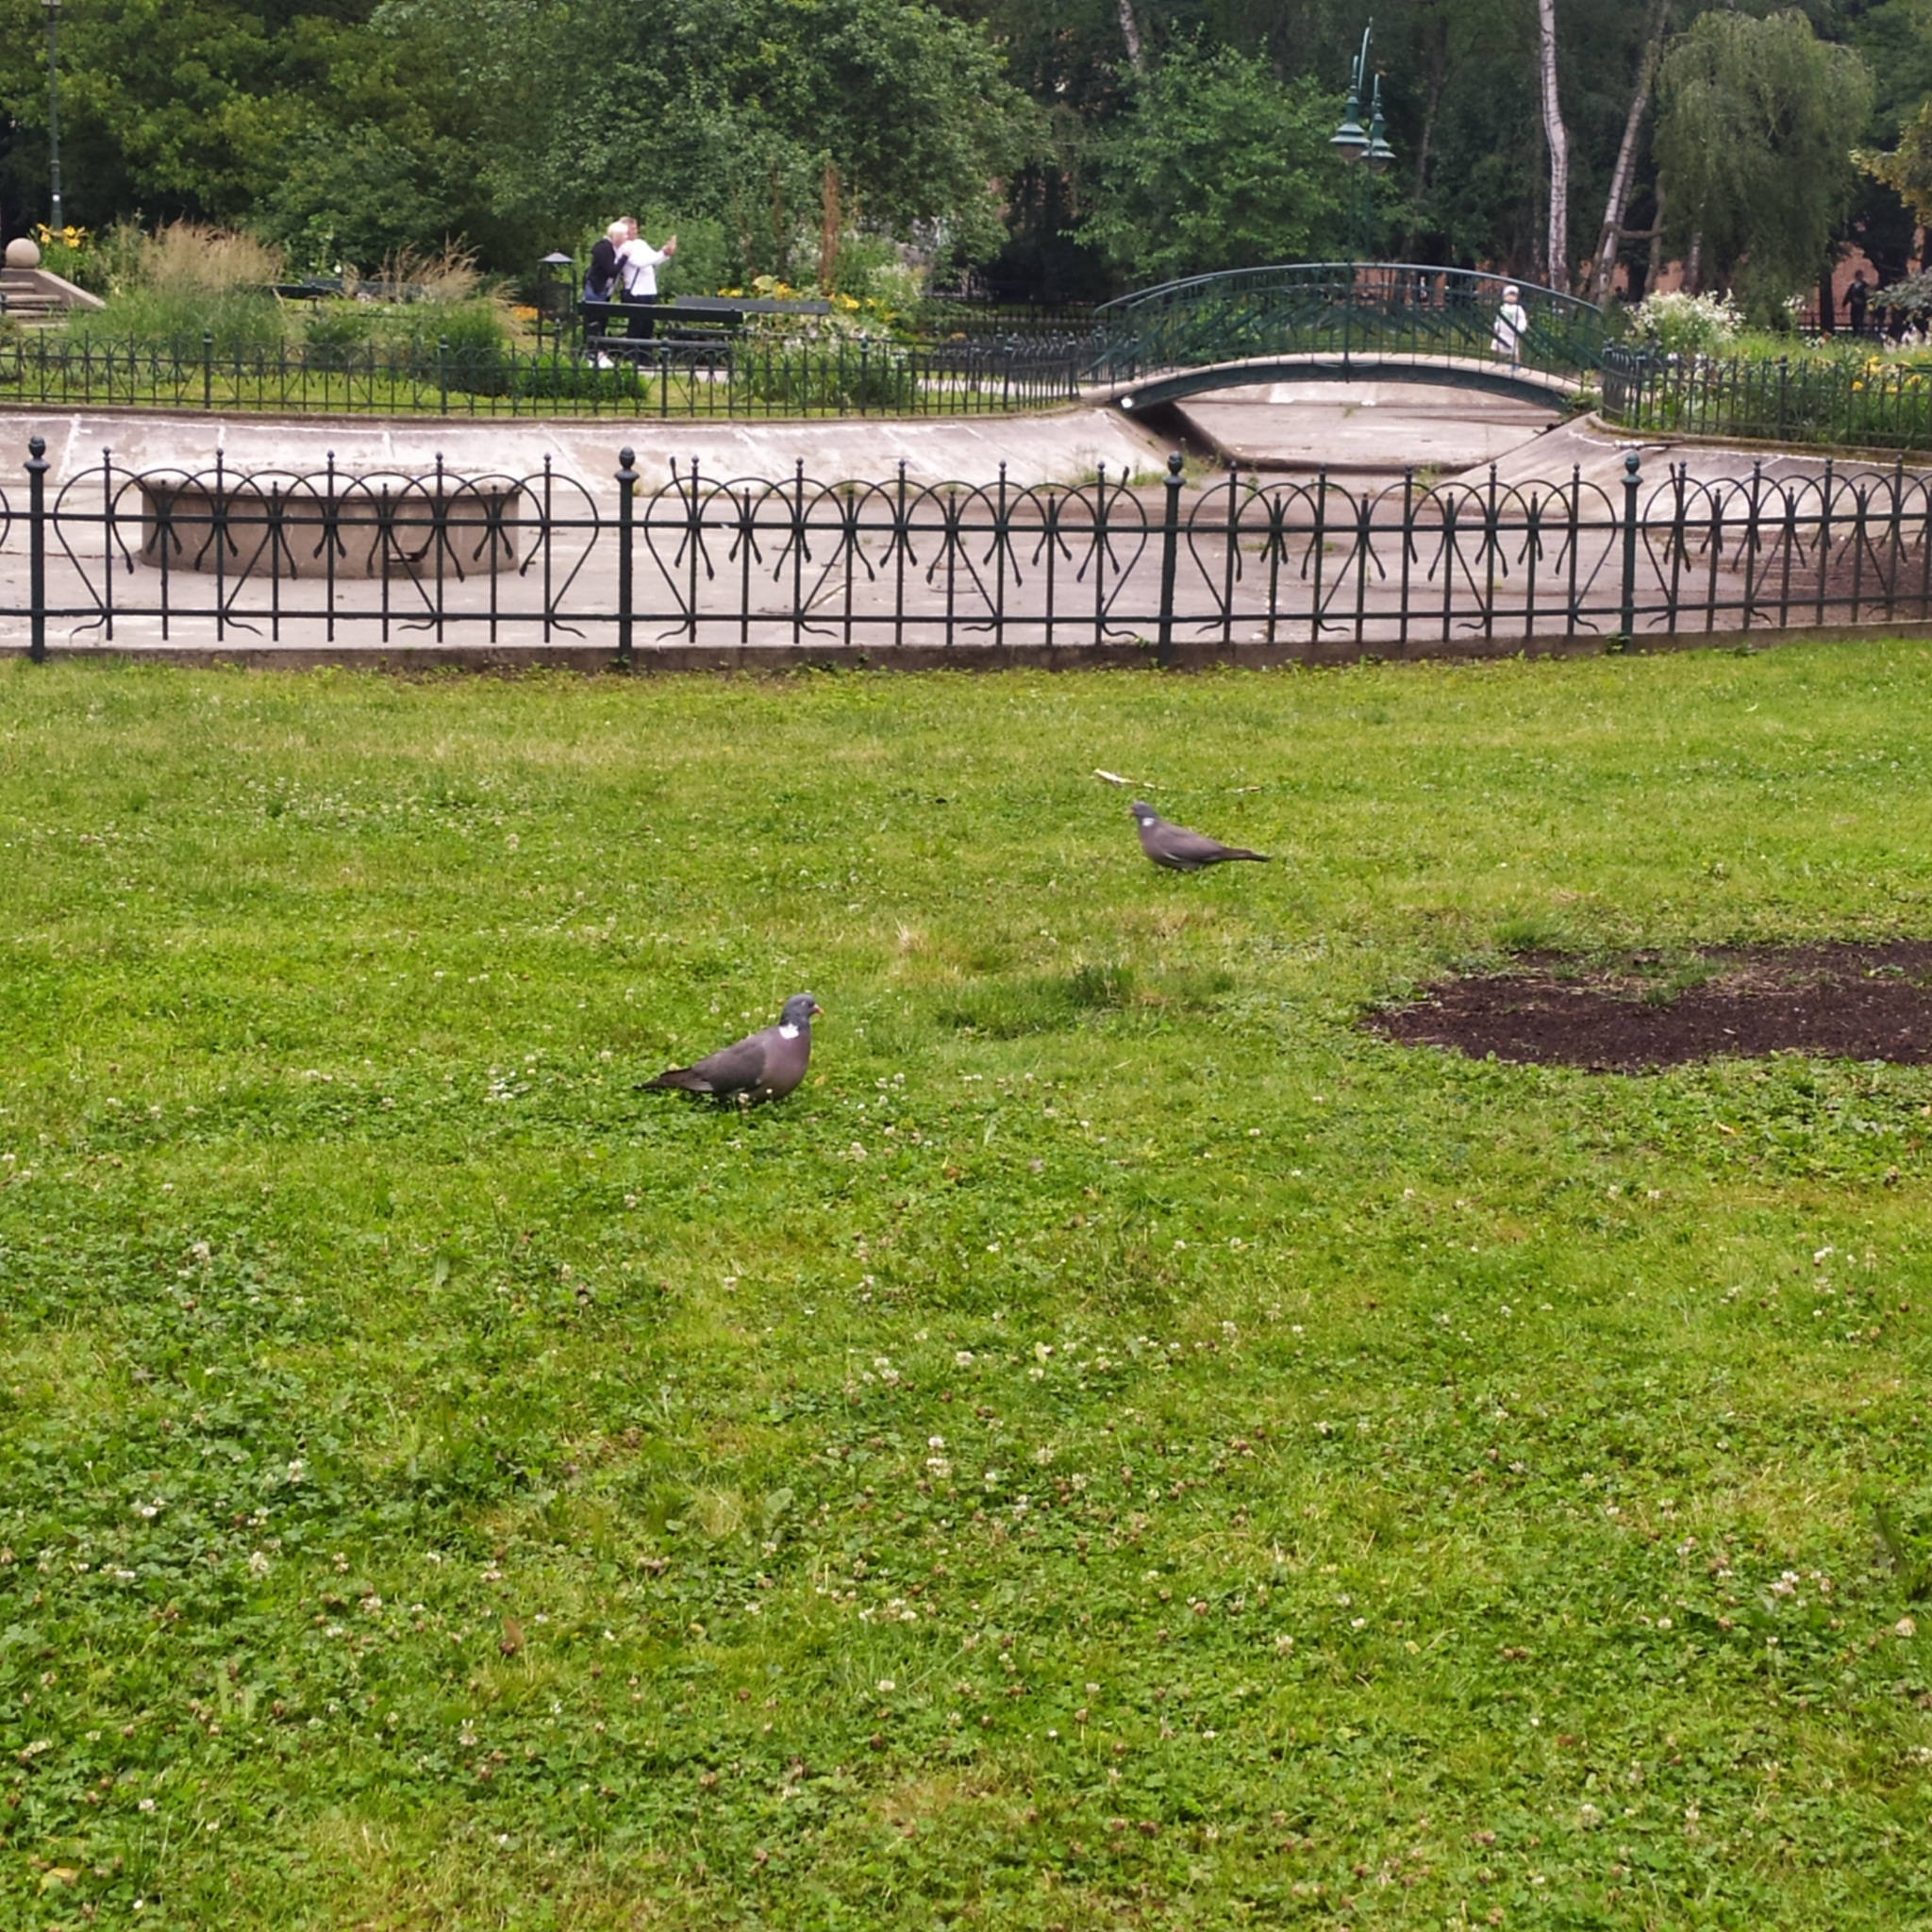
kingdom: Animalia
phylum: Chordata
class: Aves
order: Columbiformes
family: Columbidae
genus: Columba
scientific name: Columba palumbus
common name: Common wood pigeon
